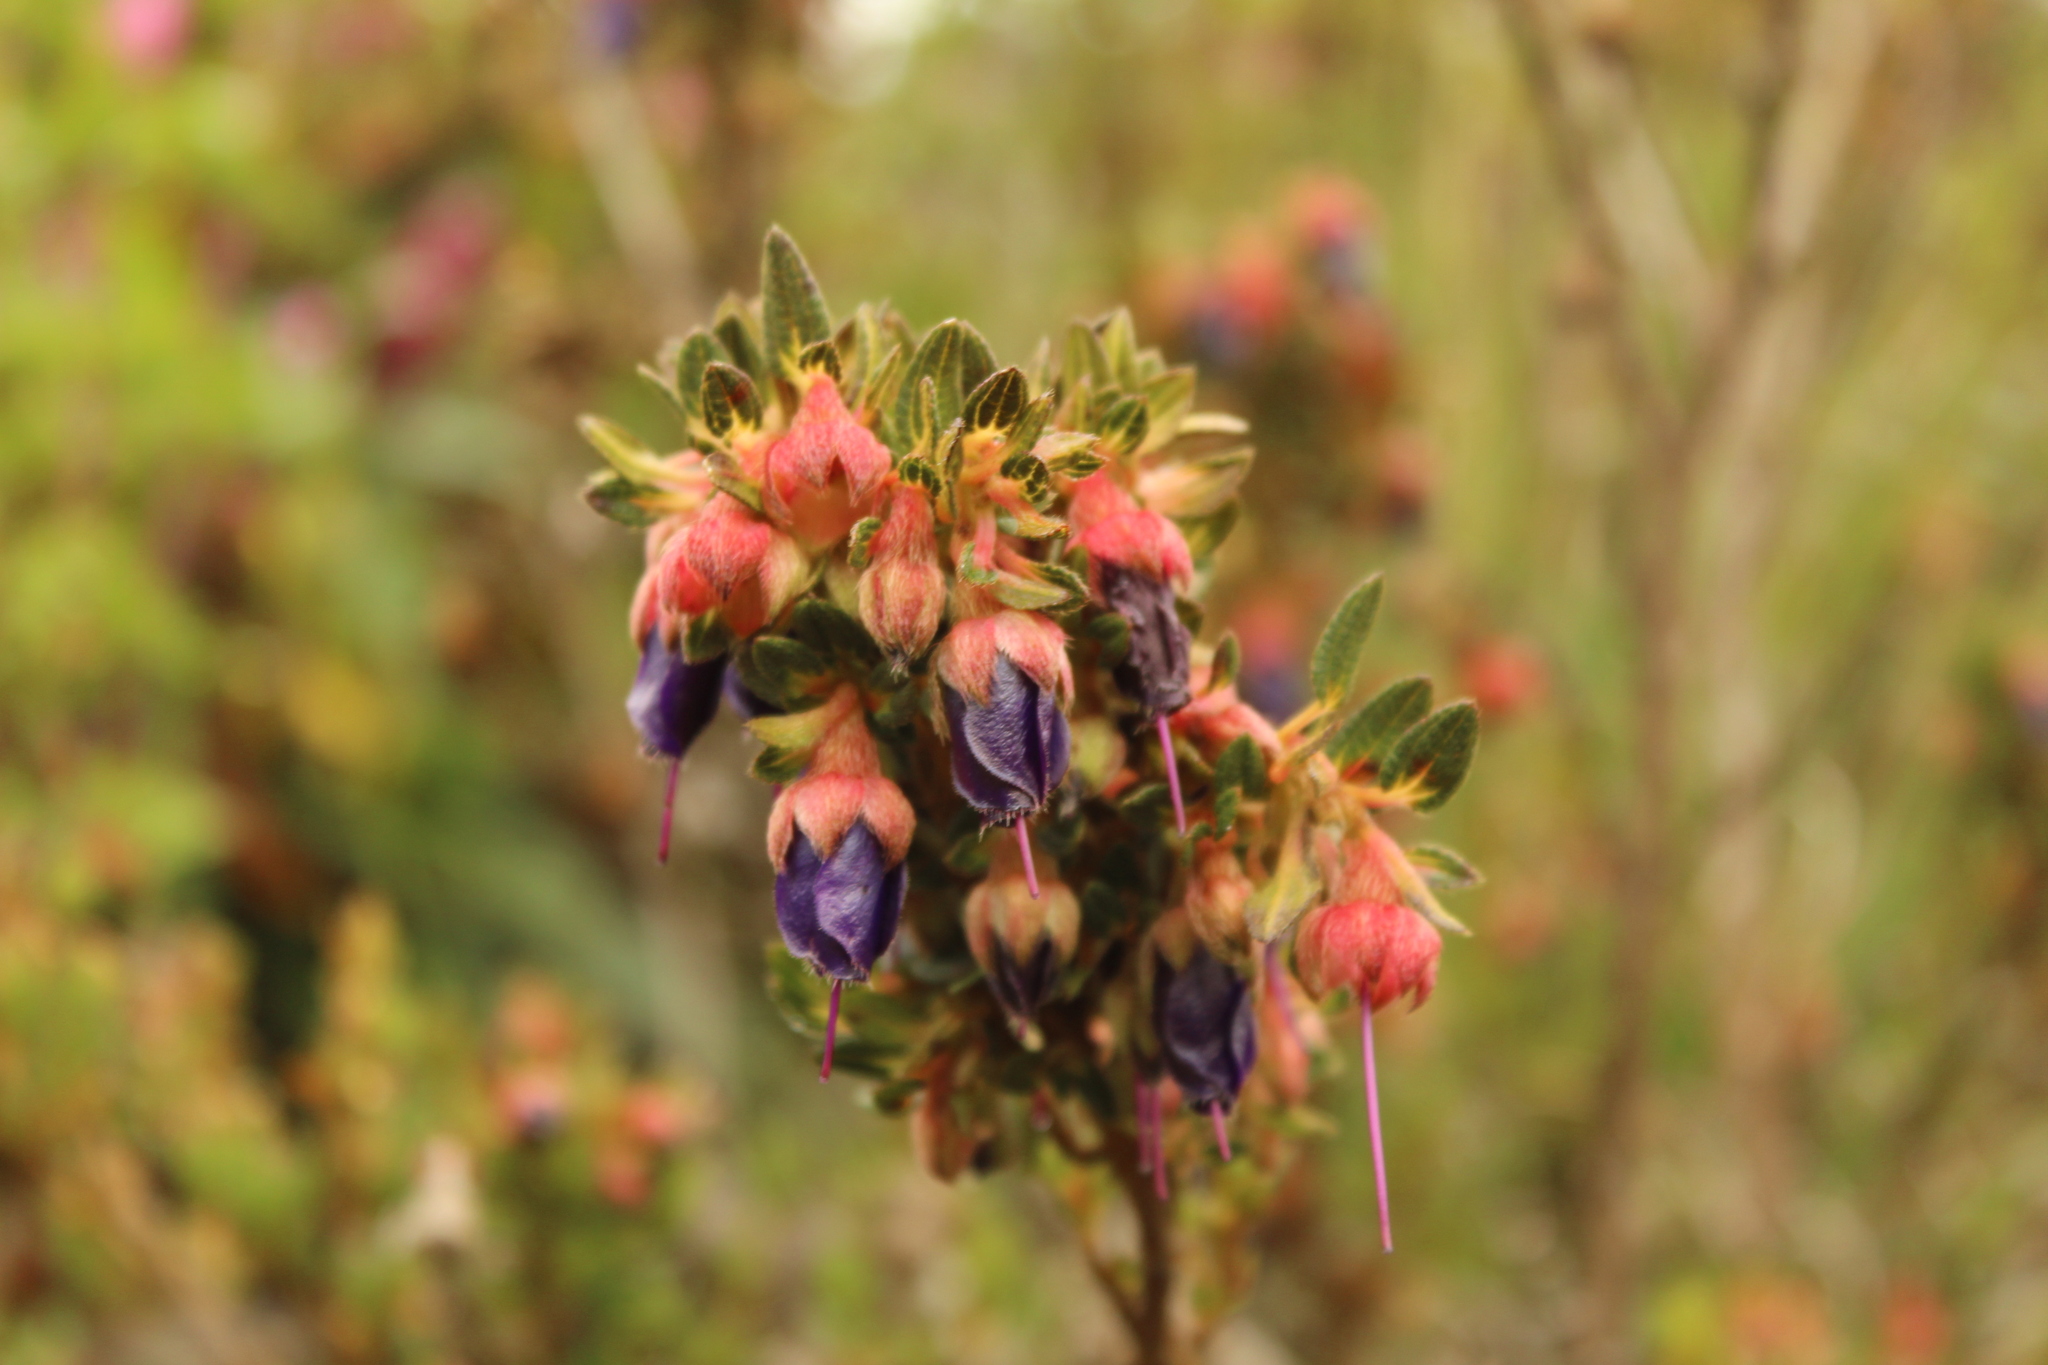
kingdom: Plantae
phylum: Tracheophyta
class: Magnoliopsida
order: Myrtales
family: Melastomataceae
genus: Brachyotum
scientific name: Brachyotum strigosum
